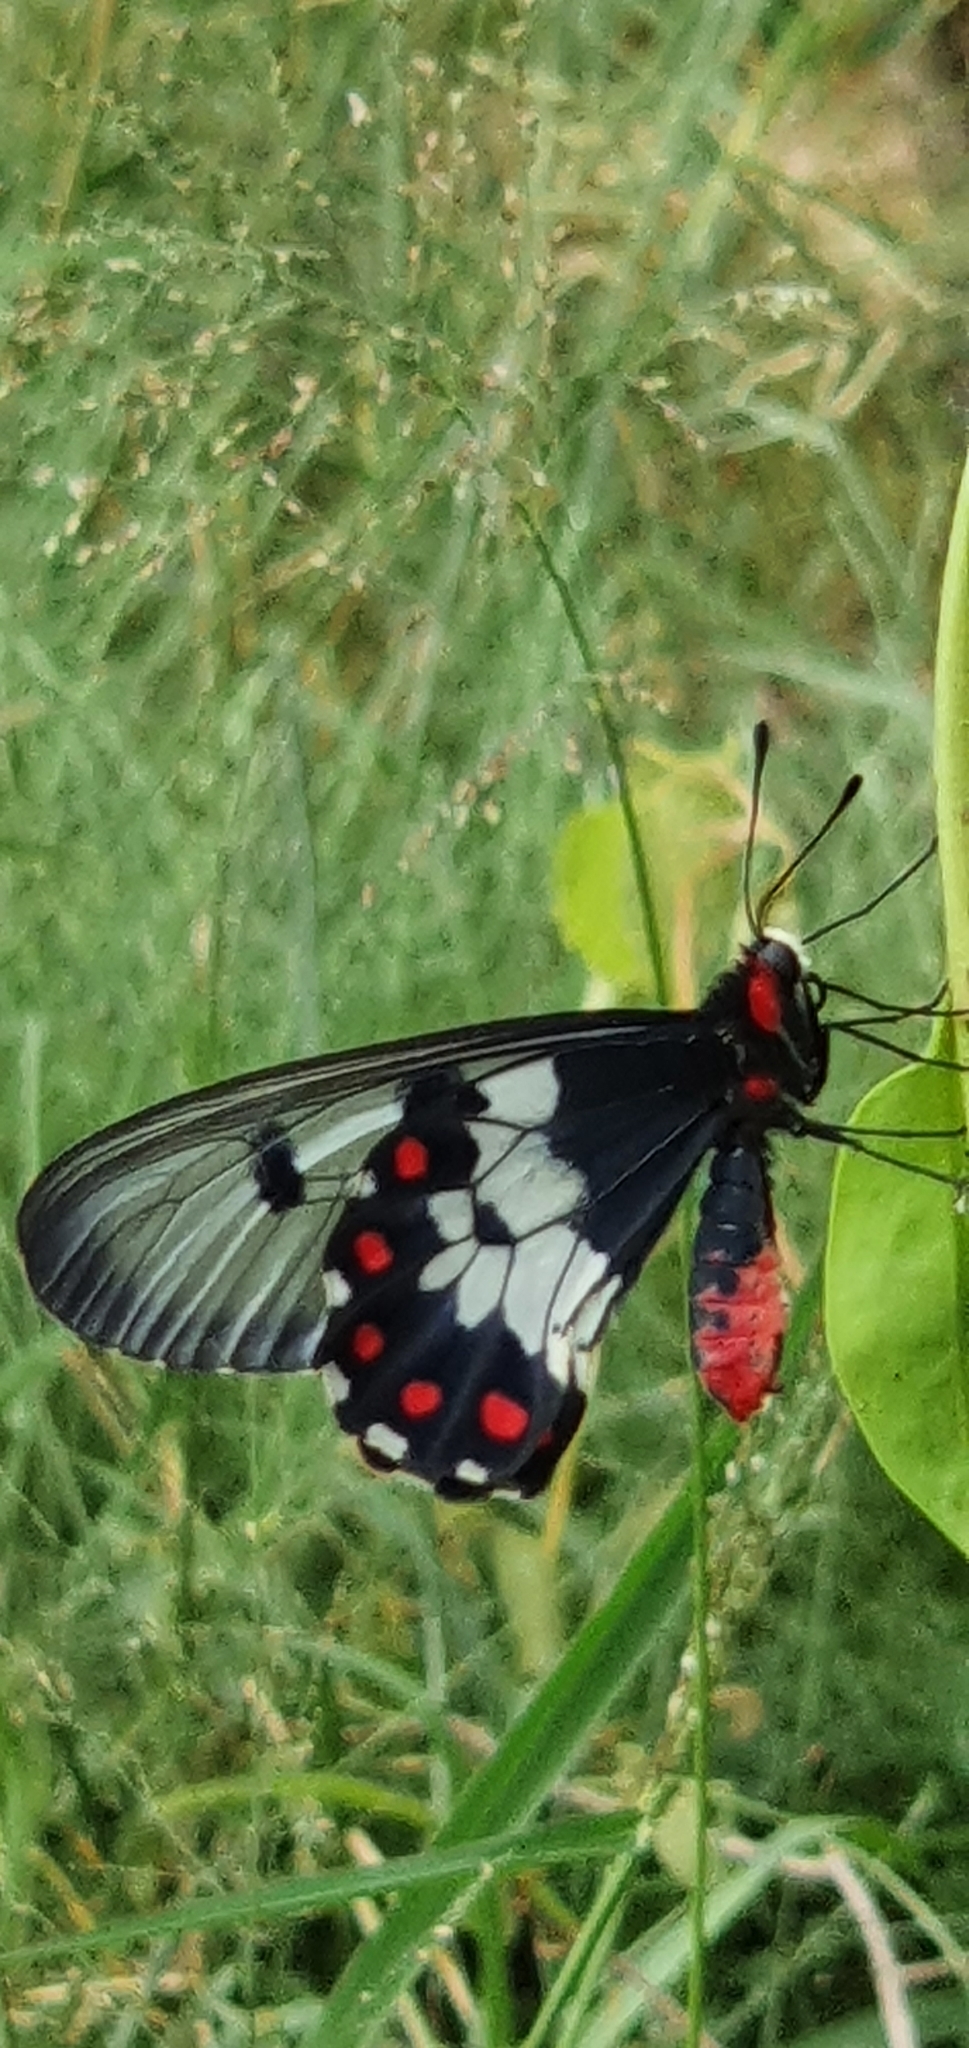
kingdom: Animalia
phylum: Arthropoda
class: Insecta
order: Lepidoptera
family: Papilionidae
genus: Cressida
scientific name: Cressida cressida
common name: Big greasy
